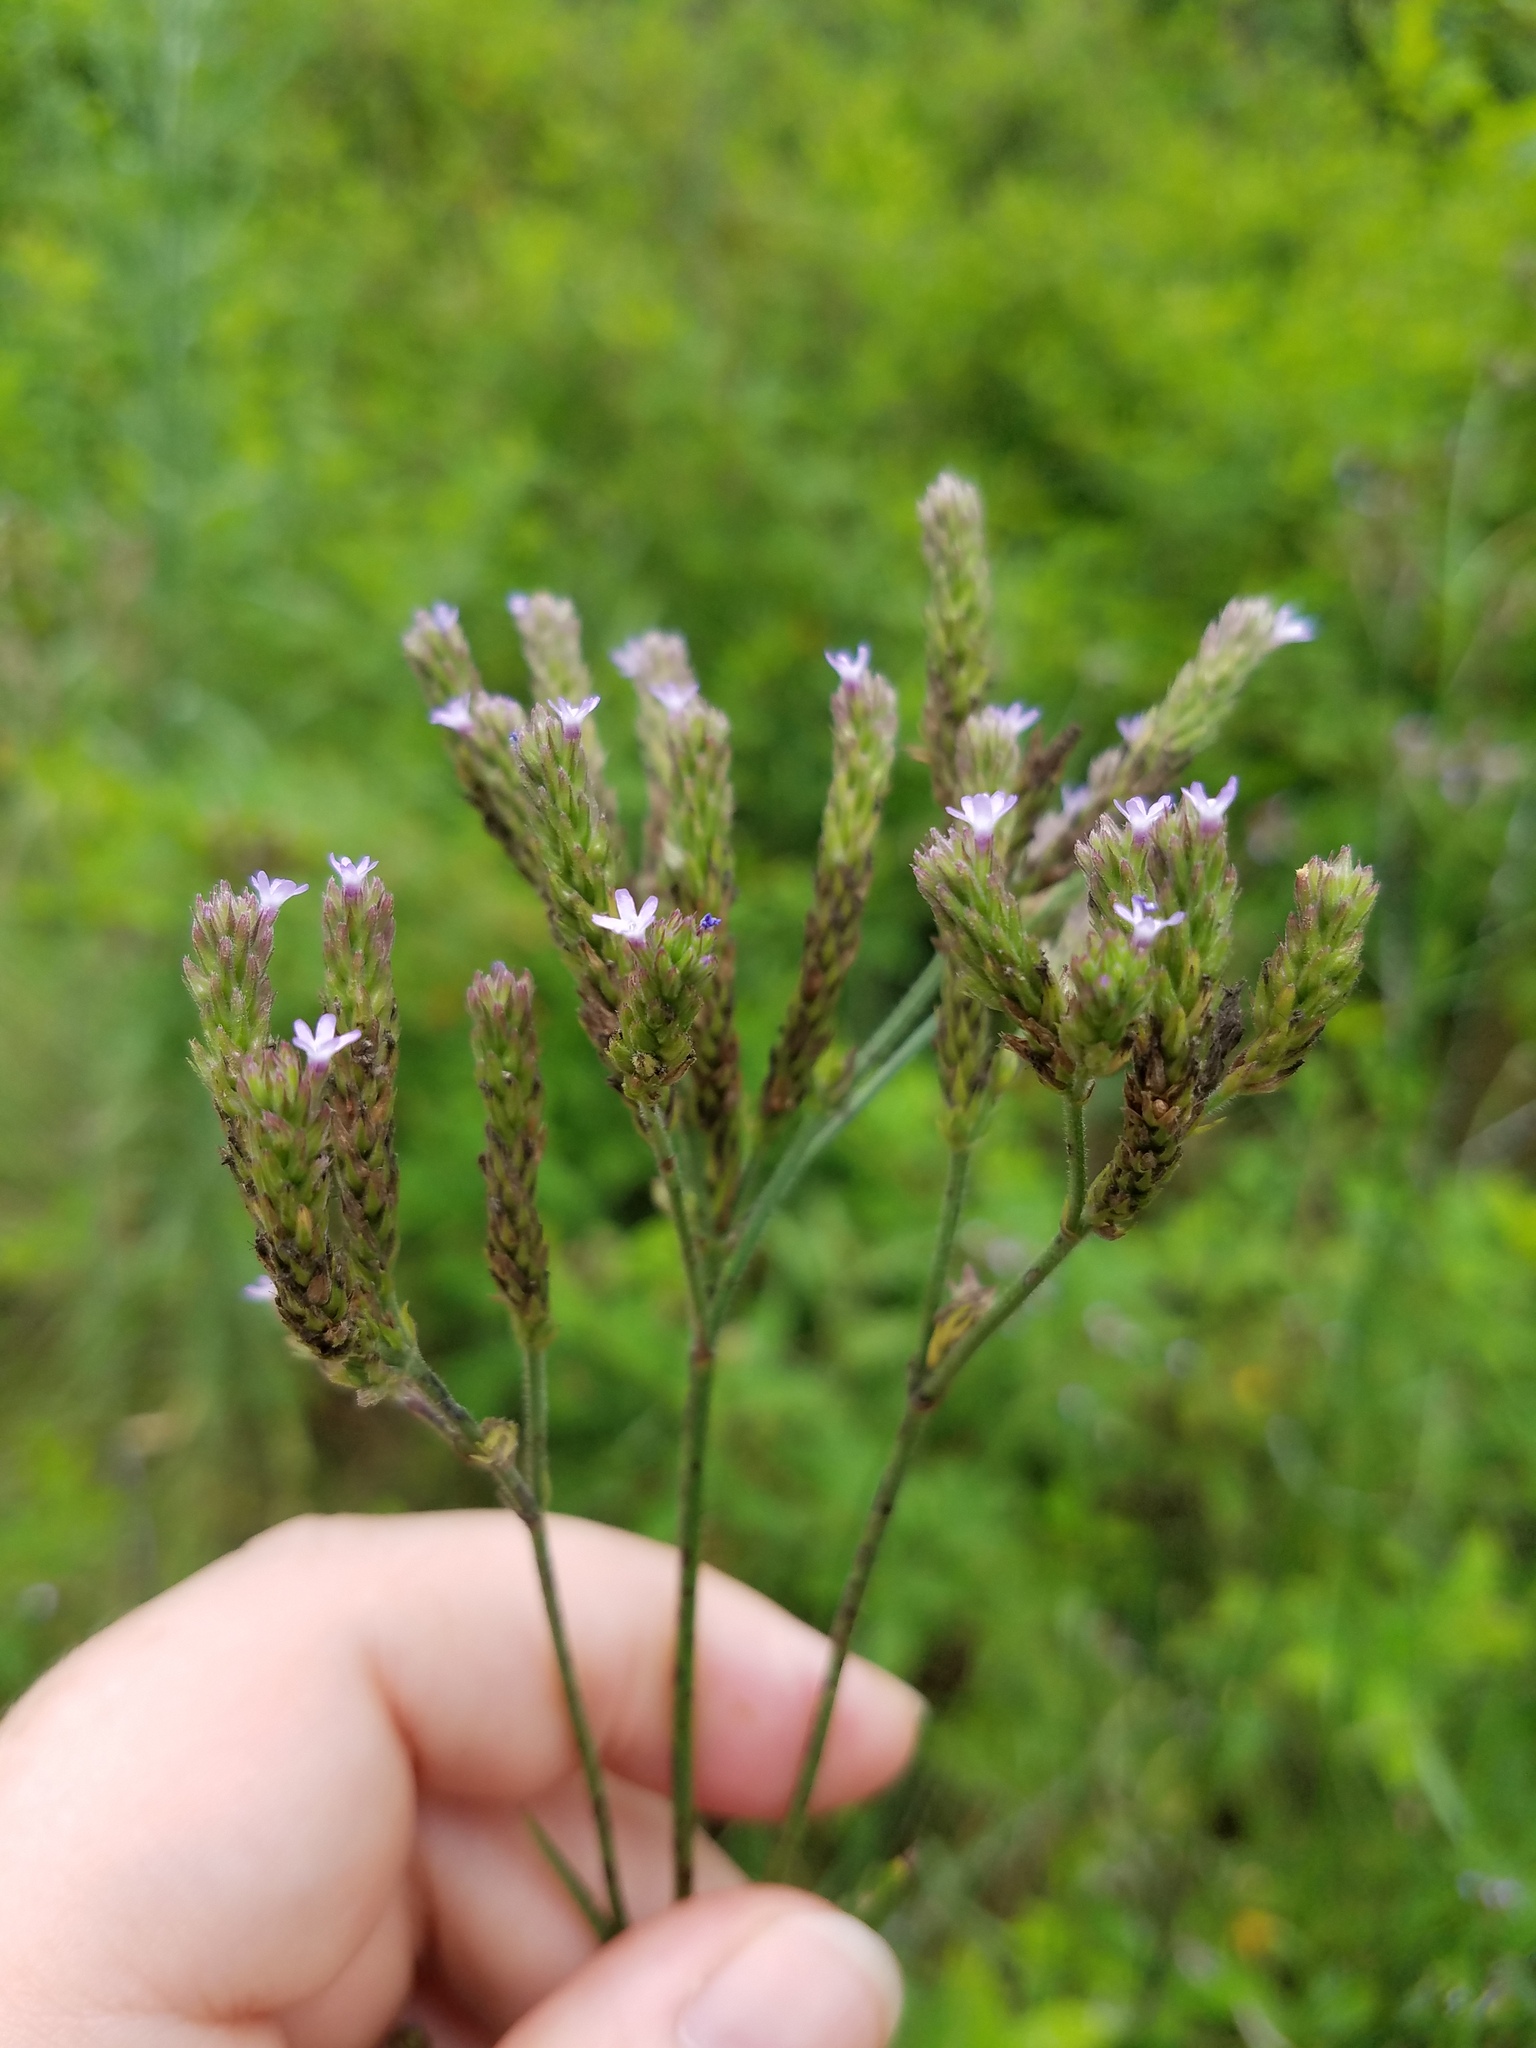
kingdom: Plantae
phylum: Tracheophyta
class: Magnoliopsida
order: Lamiales
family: Verbenaceae
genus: Verbena
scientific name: Verbena brasiliensis
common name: Brazilian vervain
